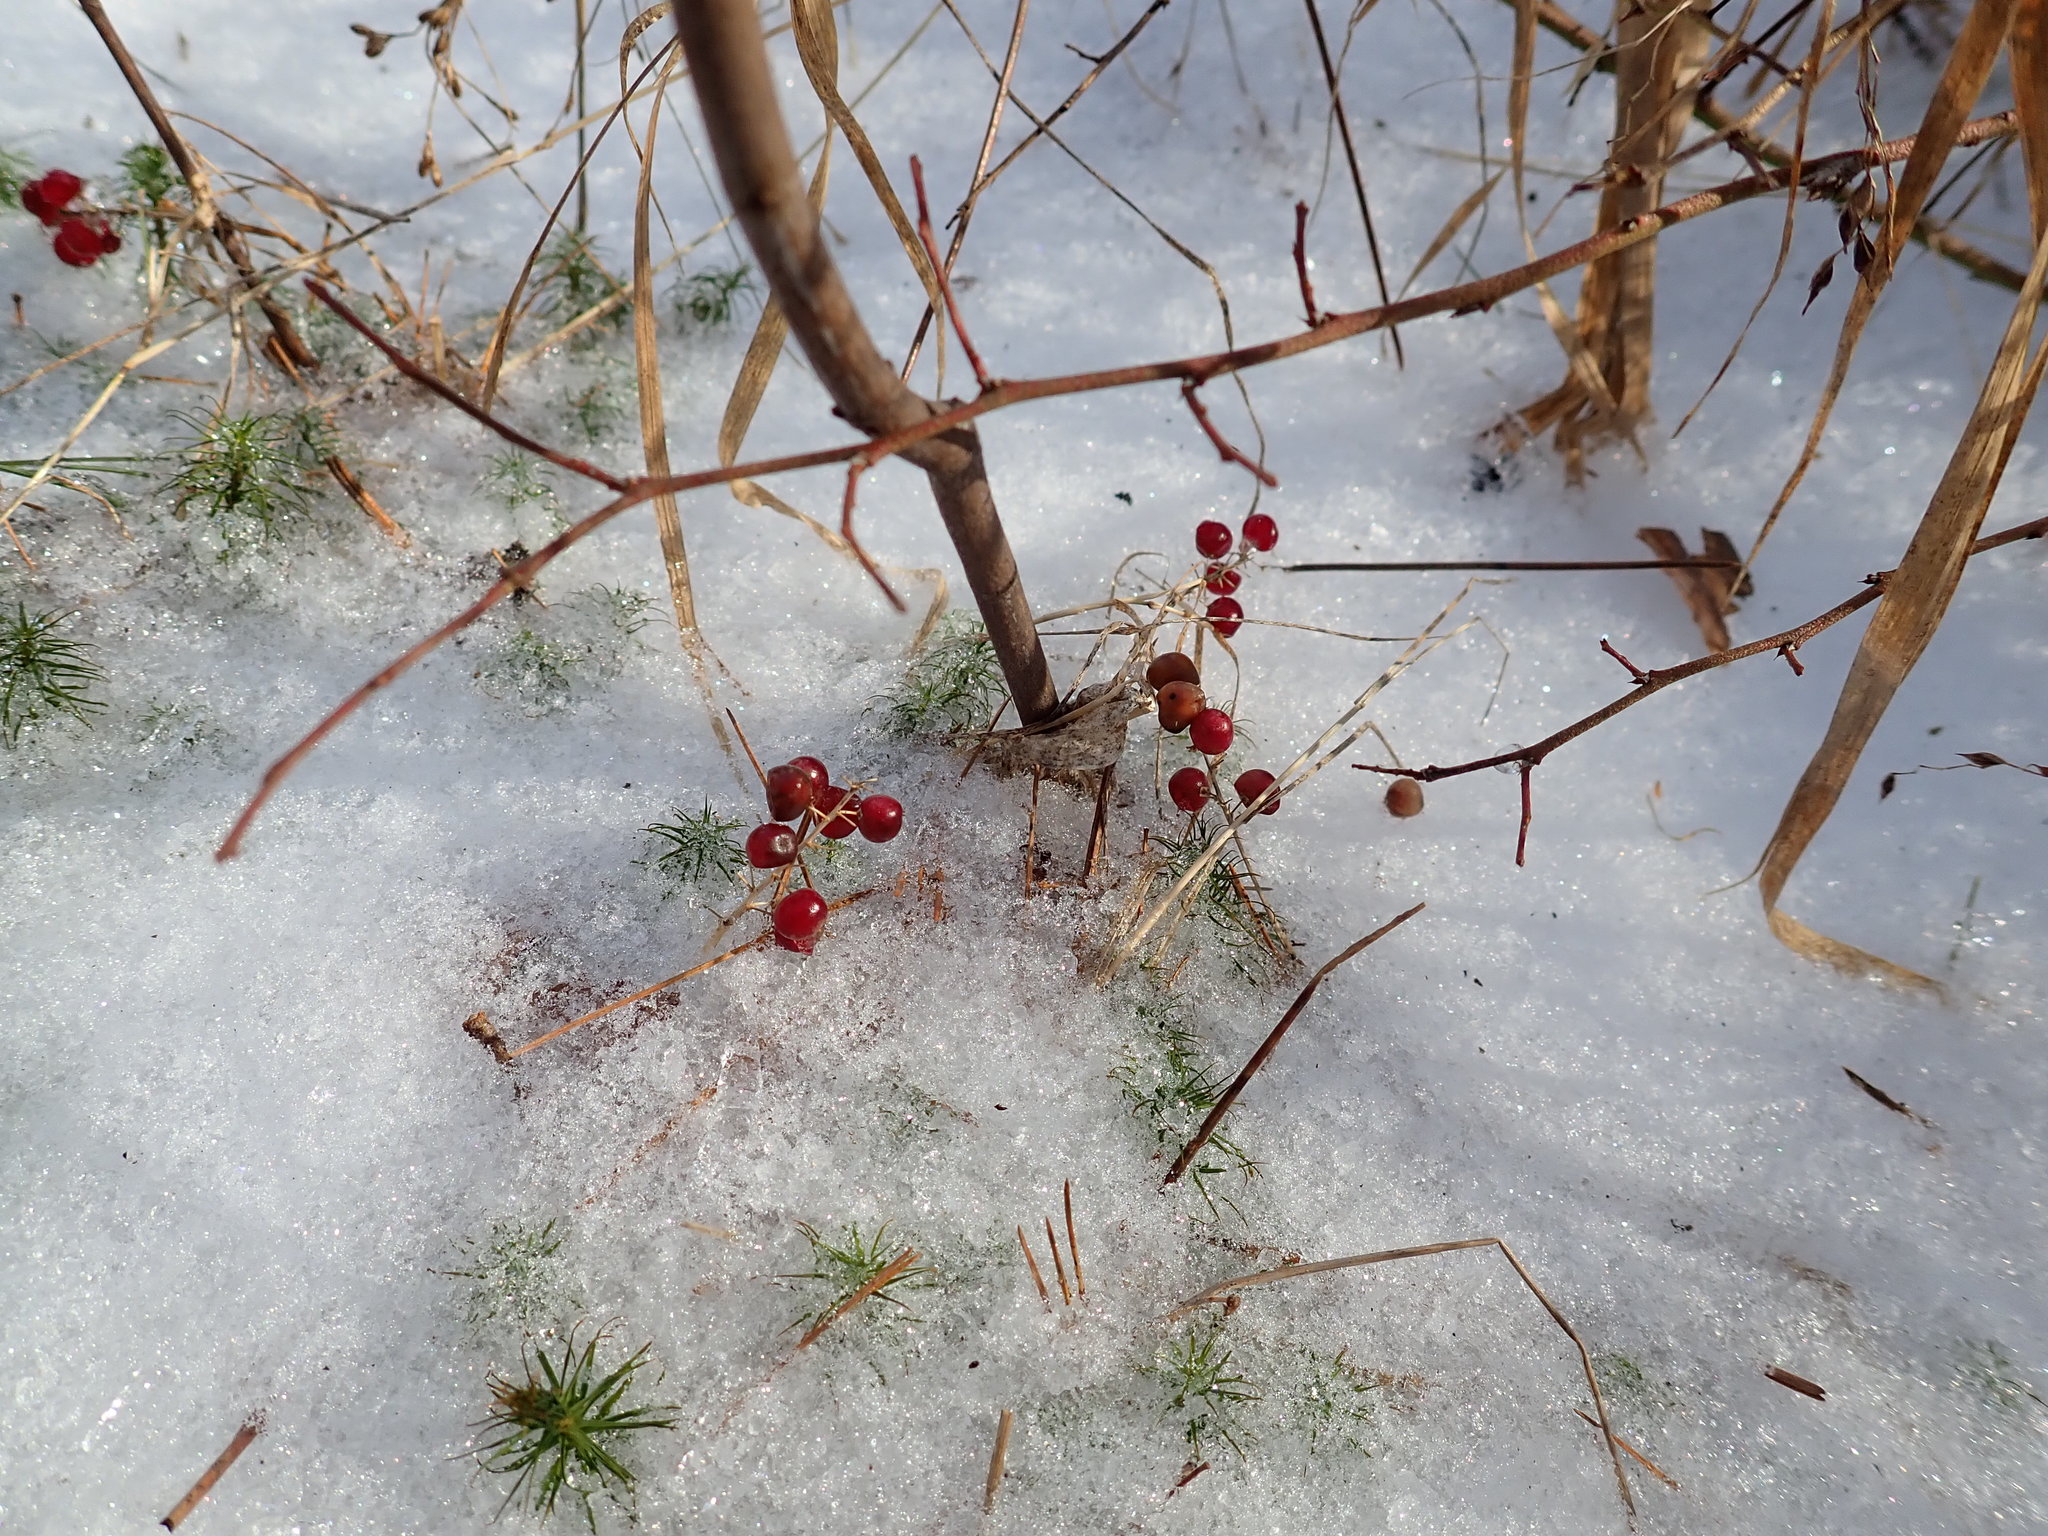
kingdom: Plantae
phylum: Tracheophyta
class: Liliopsida
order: Asparagales
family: Asparagaceae
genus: Maianthemum
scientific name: Maianthemum canadense
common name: False lily-of-the-valley
